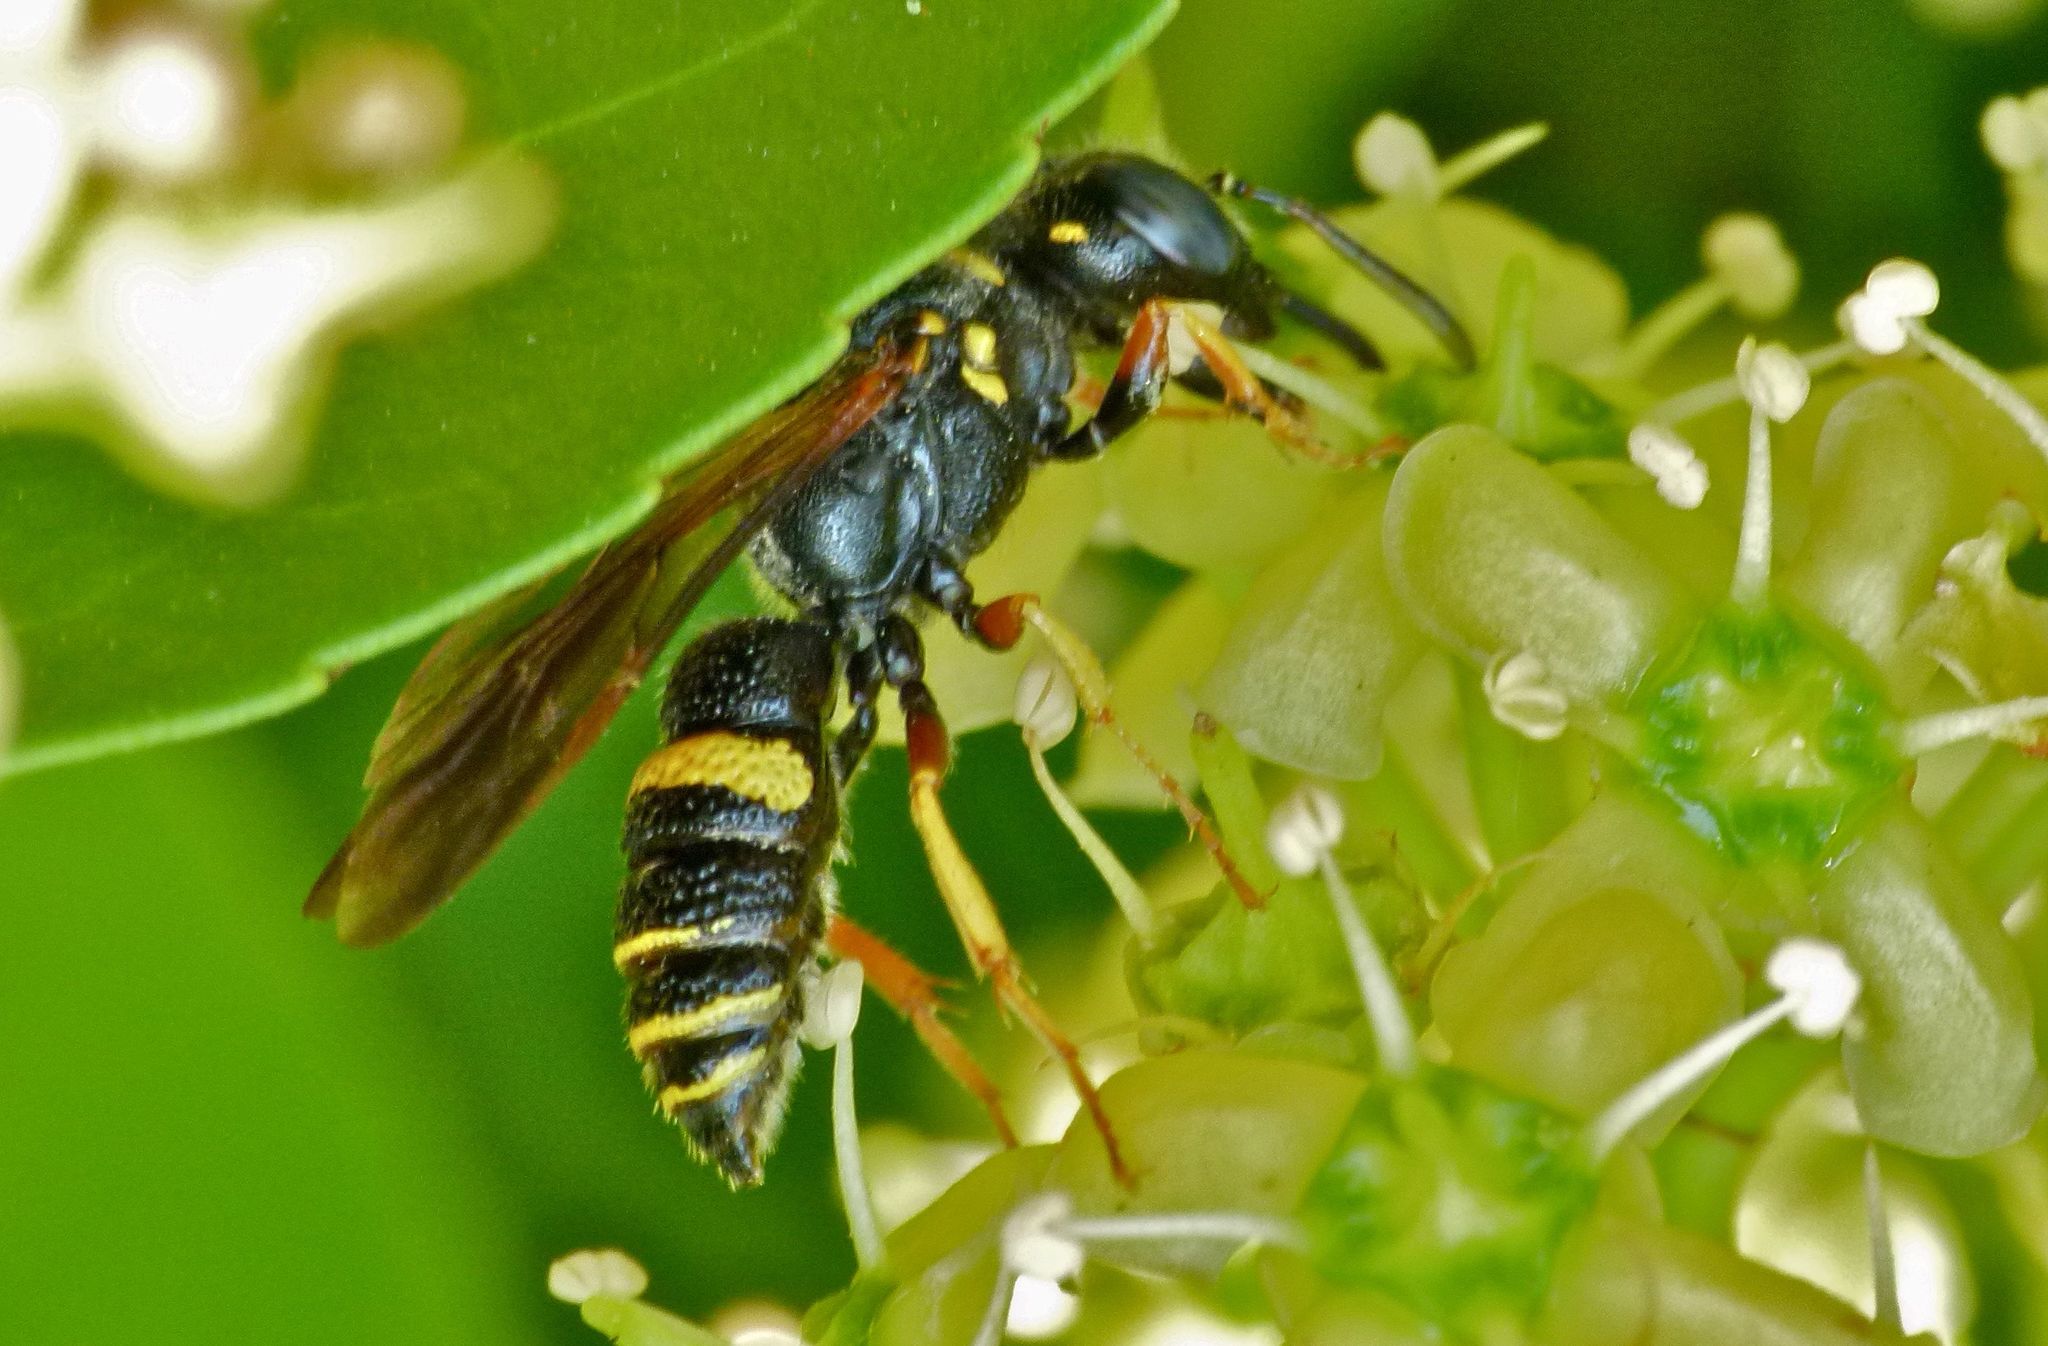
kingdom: Animalia
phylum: Arthropoda
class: Insecta
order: Hymenoptera
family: Crabronidae
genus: Philanthus
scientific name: Philanthus gibbosus
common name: Humped beewolf
